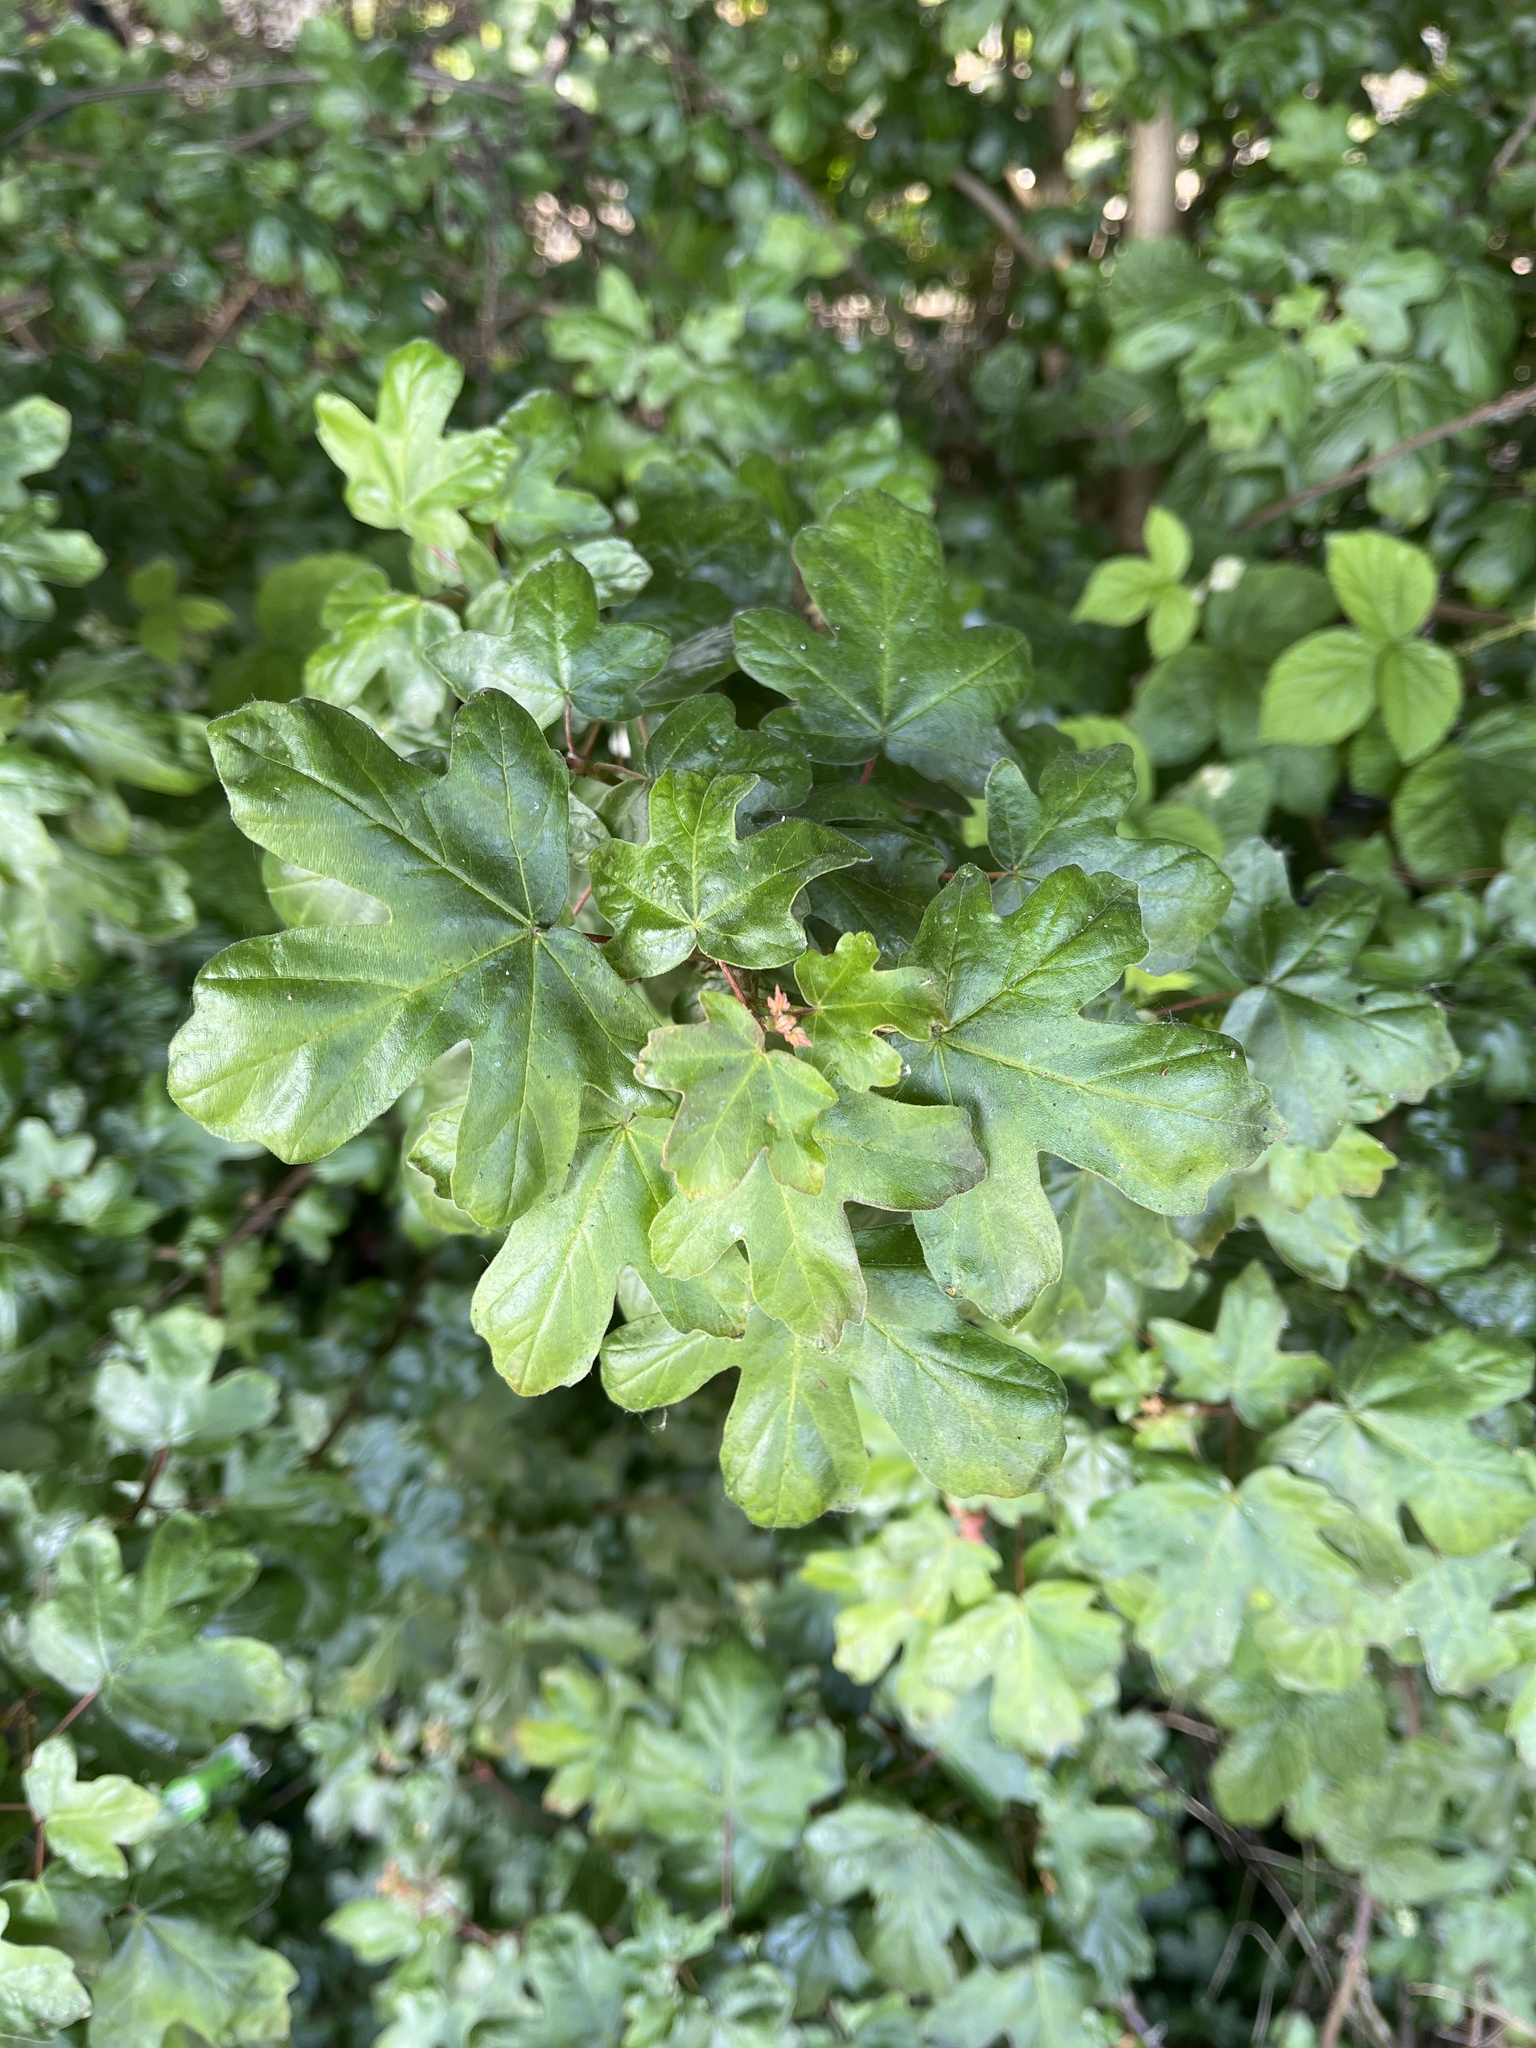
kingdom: Plantae
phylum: Tracheophyta
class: Magnoliopsida
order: Sapindales
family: Sapindaceae
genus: Acer
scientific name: Acer campestre
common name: Field maple
